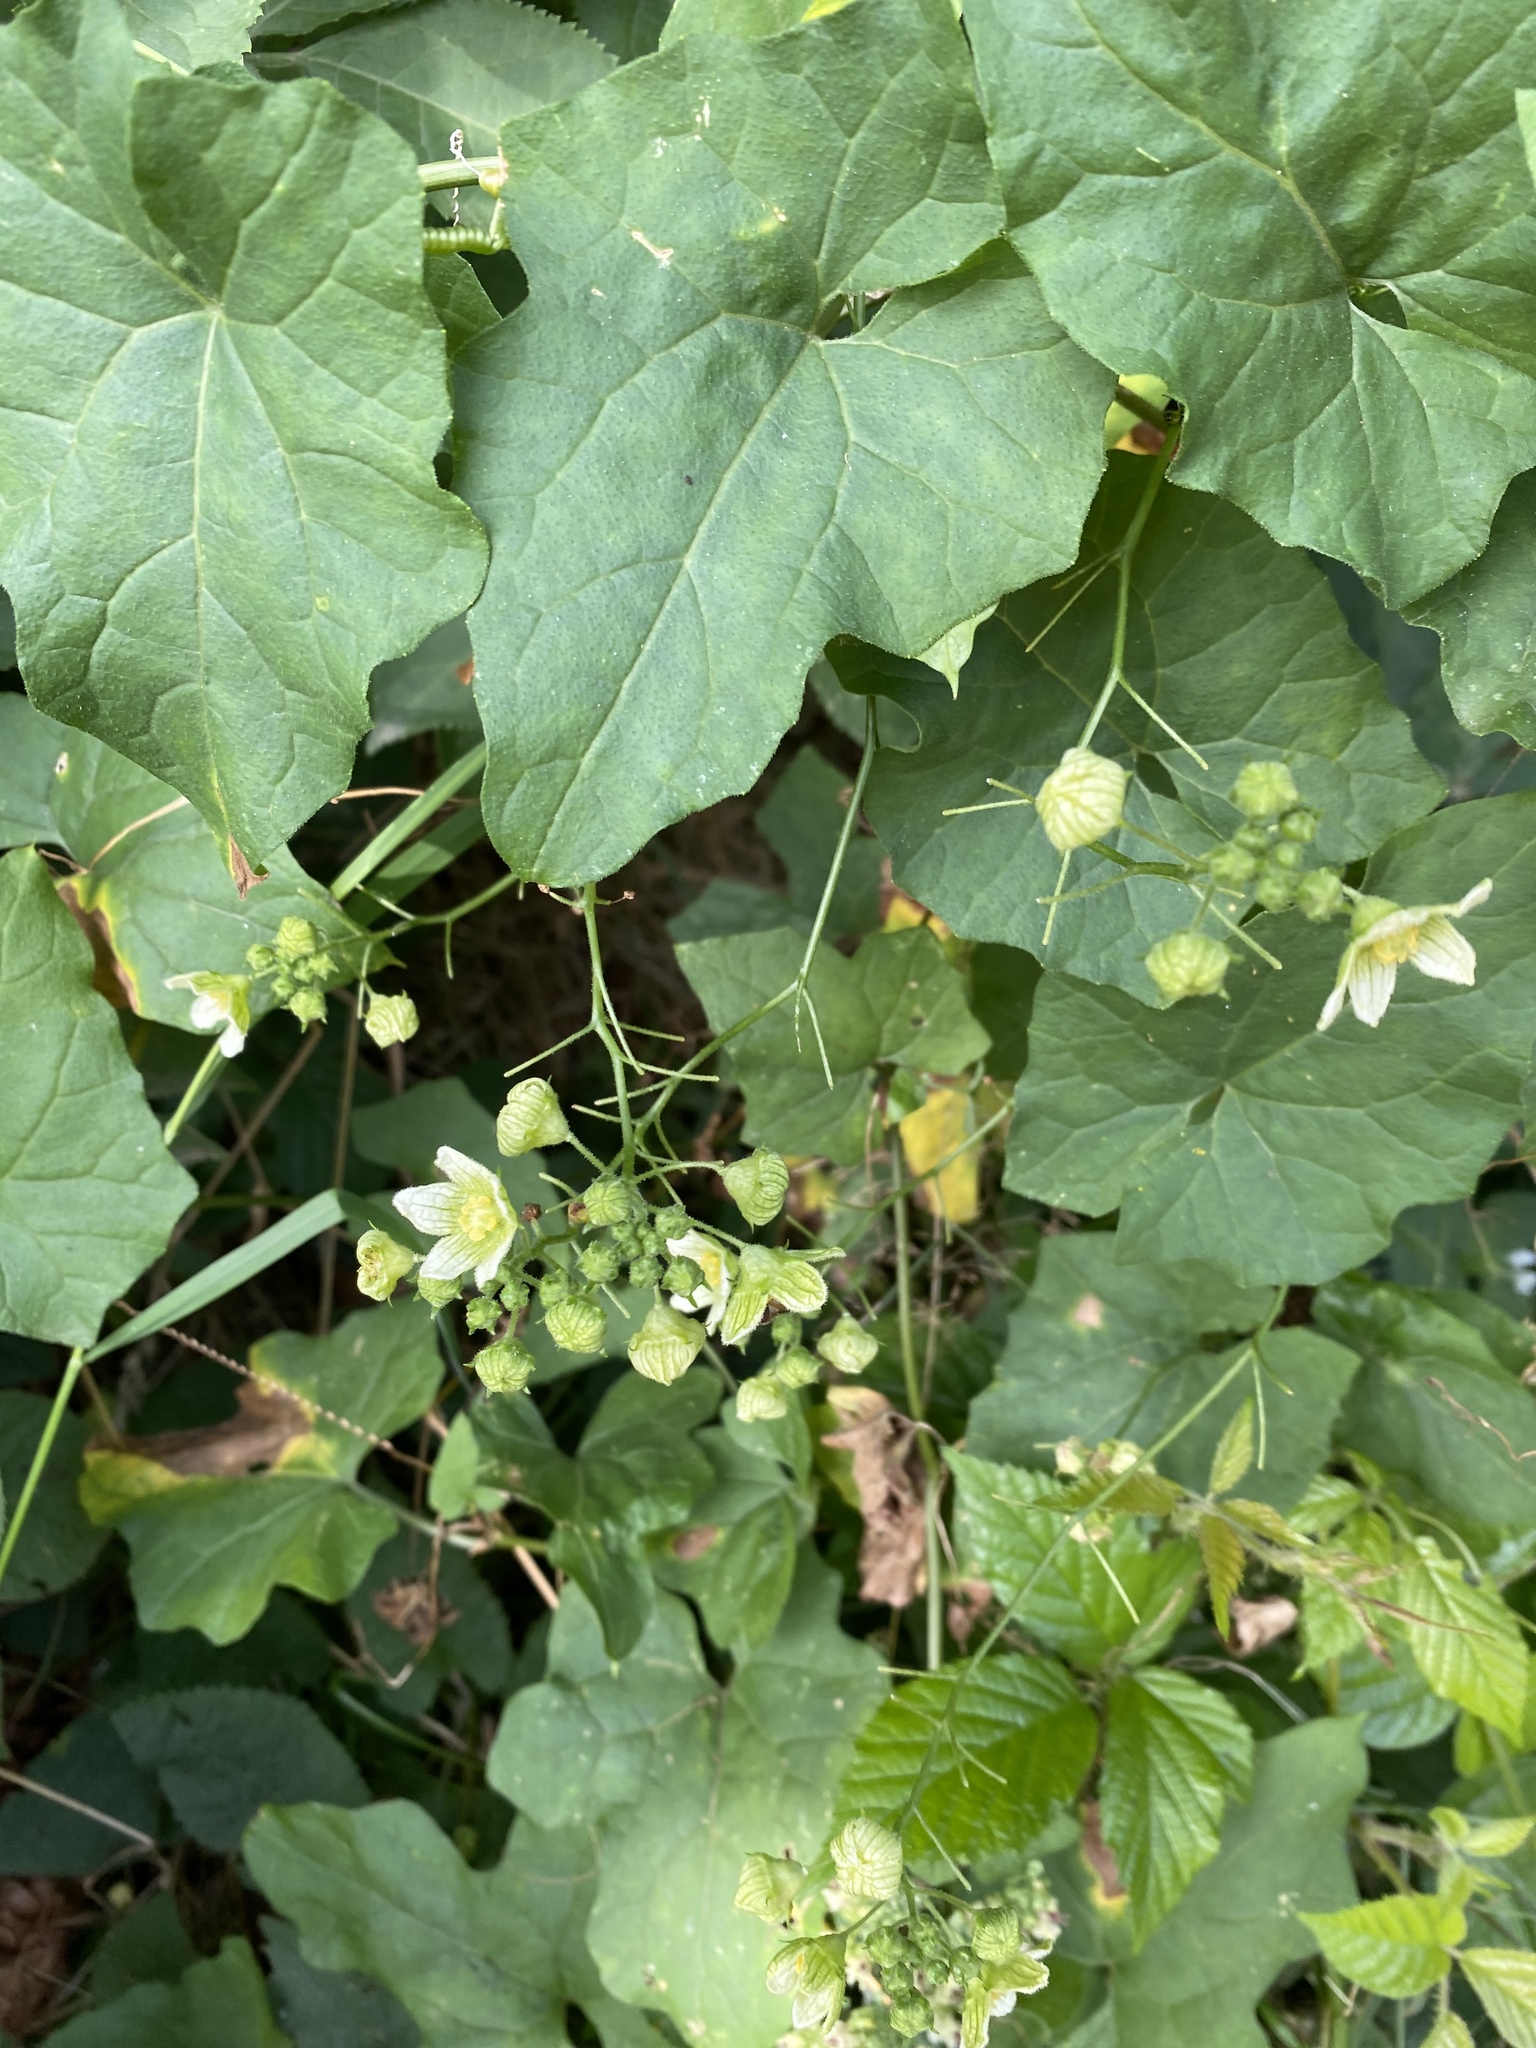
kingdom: Plantae
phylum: Tracheophyta
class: Magnoliopsida
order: Cucurbitales
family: Cucurbitaceae
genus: Bryonia
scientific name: Bryonia cretica
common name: Cretan bryony
